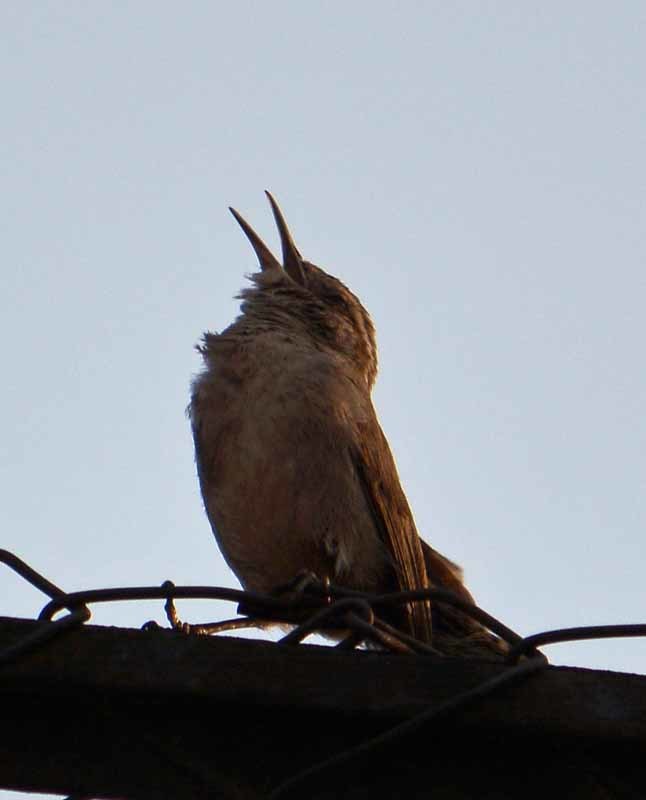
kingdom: Animalia
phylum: Chordata
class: Aves
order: Passeriformes
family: Troglodytidae
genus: Thryomanes
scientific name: Thryomanes bewickii
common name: Bewick's wren
